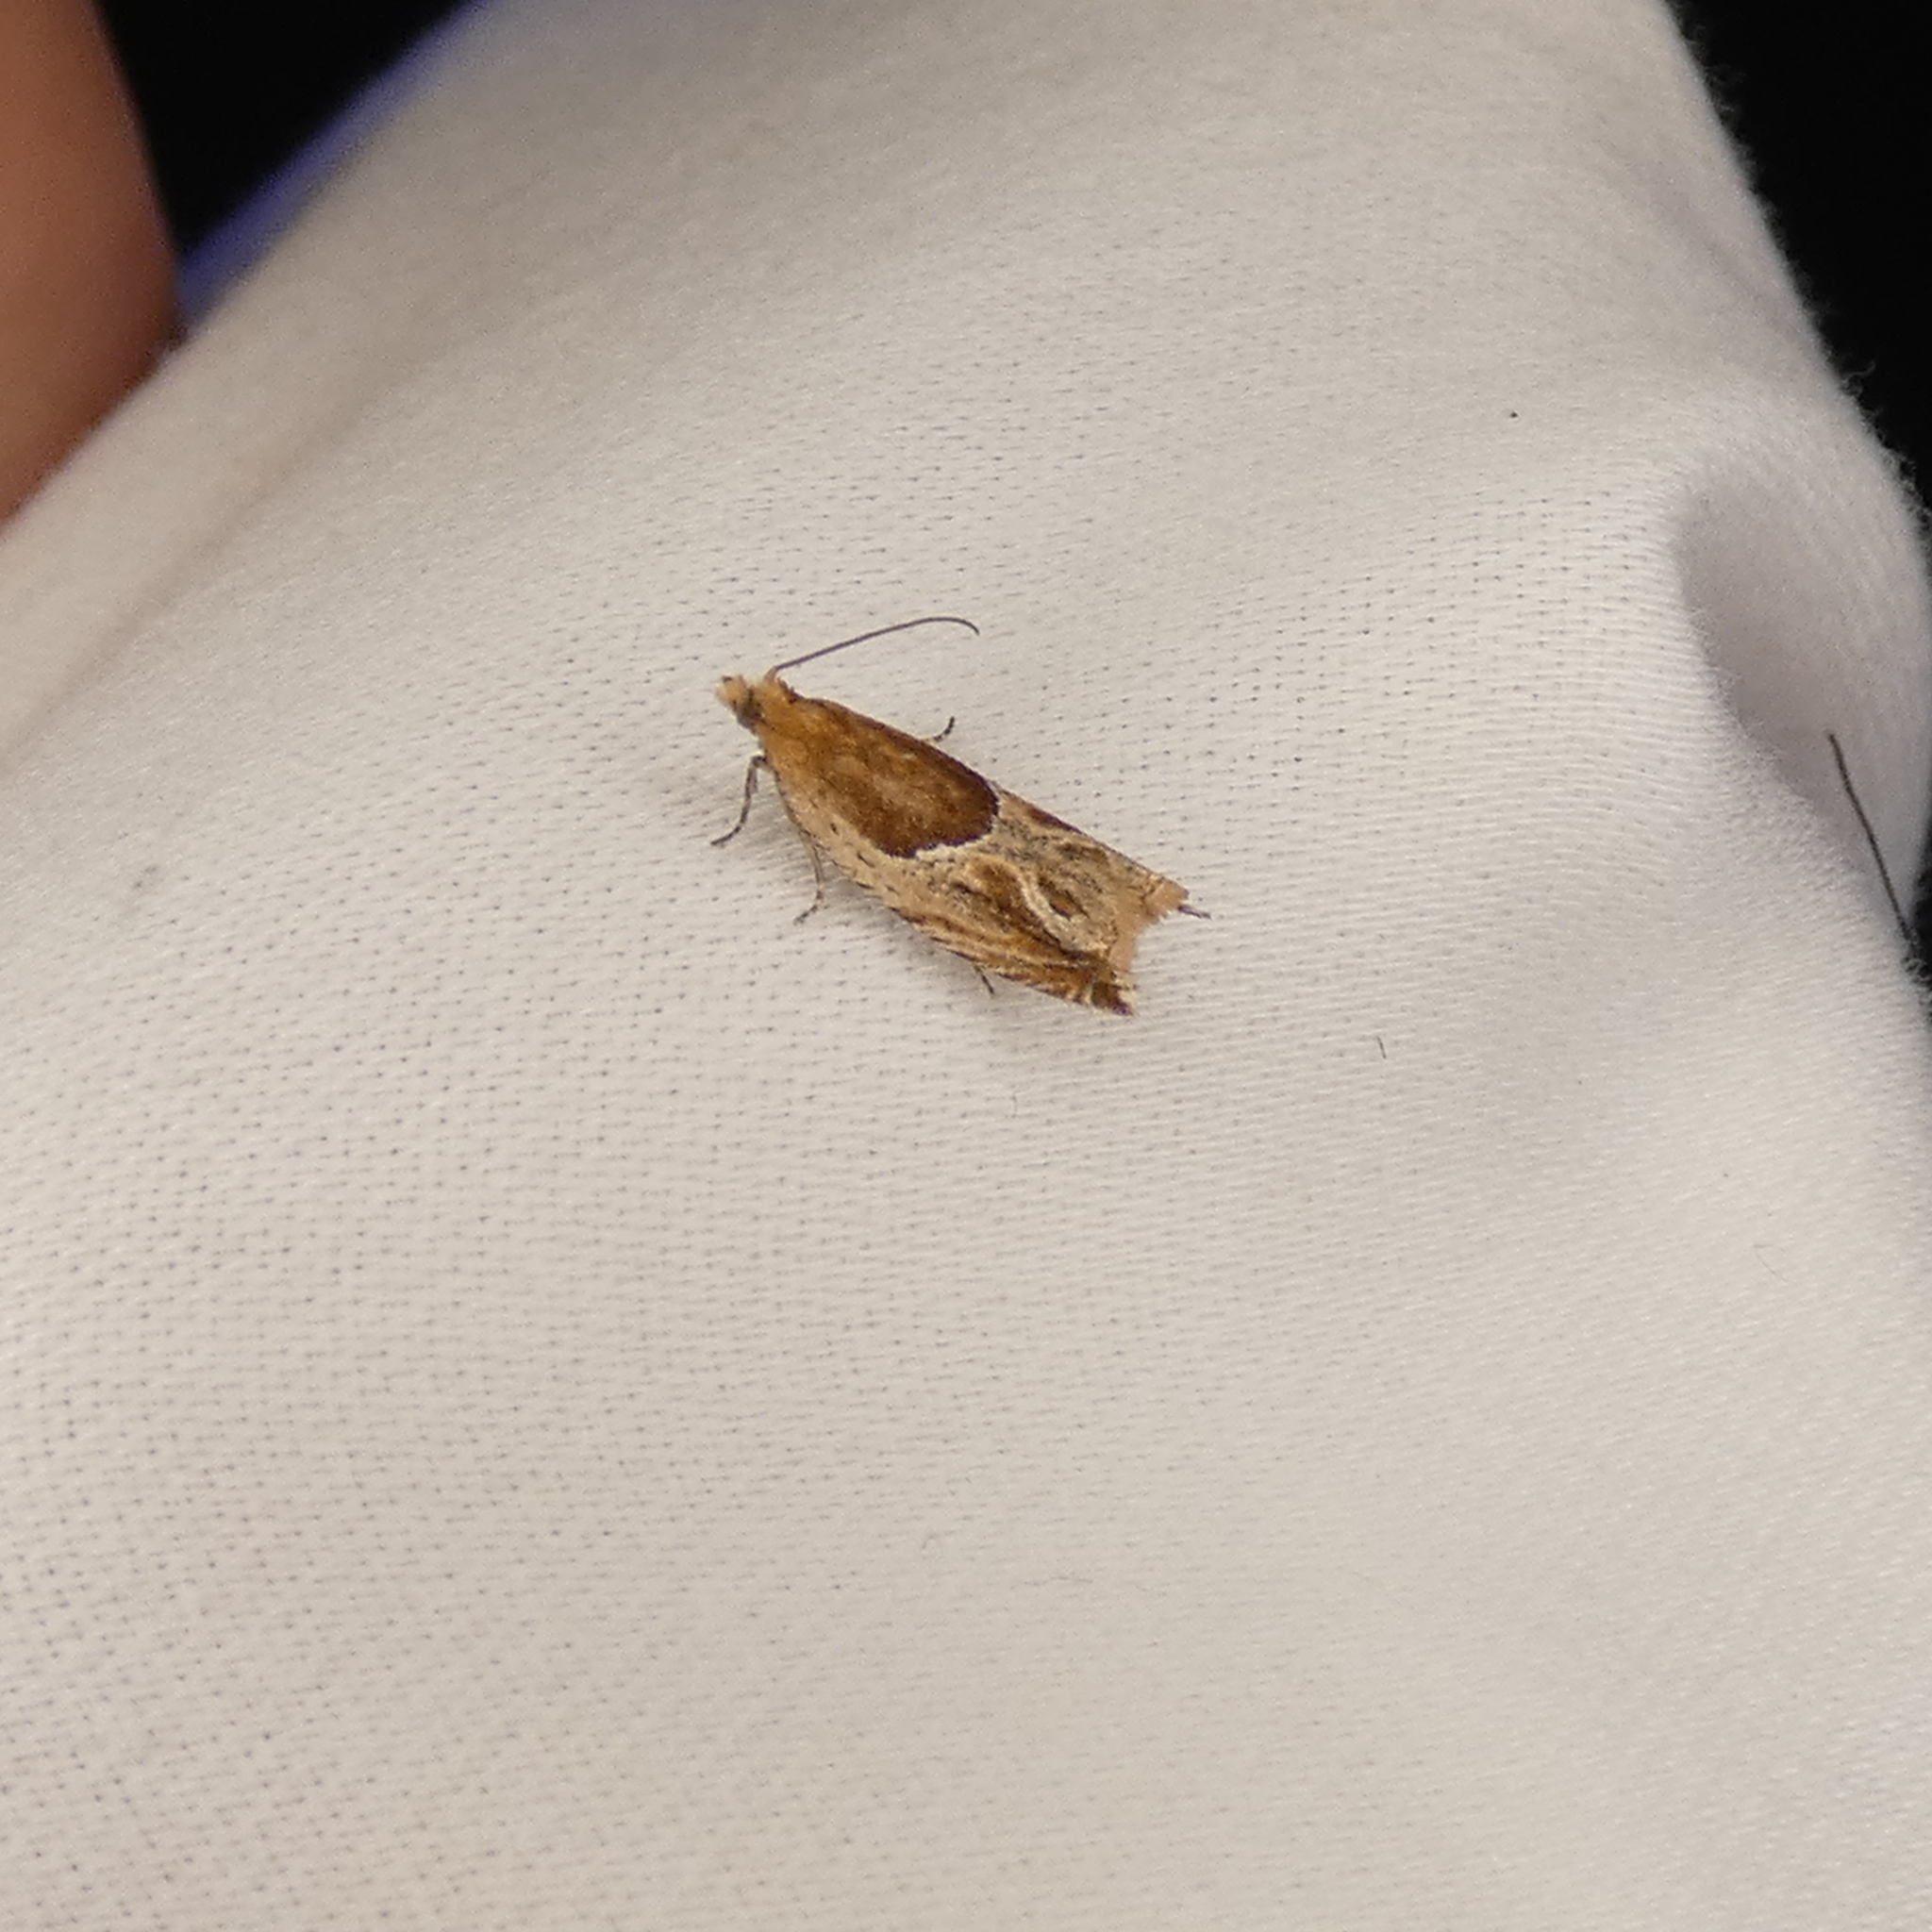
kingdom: Animalia
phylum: Arthropoda
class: Insecta
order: Lepidoptera
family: Tortricidae
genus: Ancylis
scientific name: Ancylis comptana
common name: Little roller
